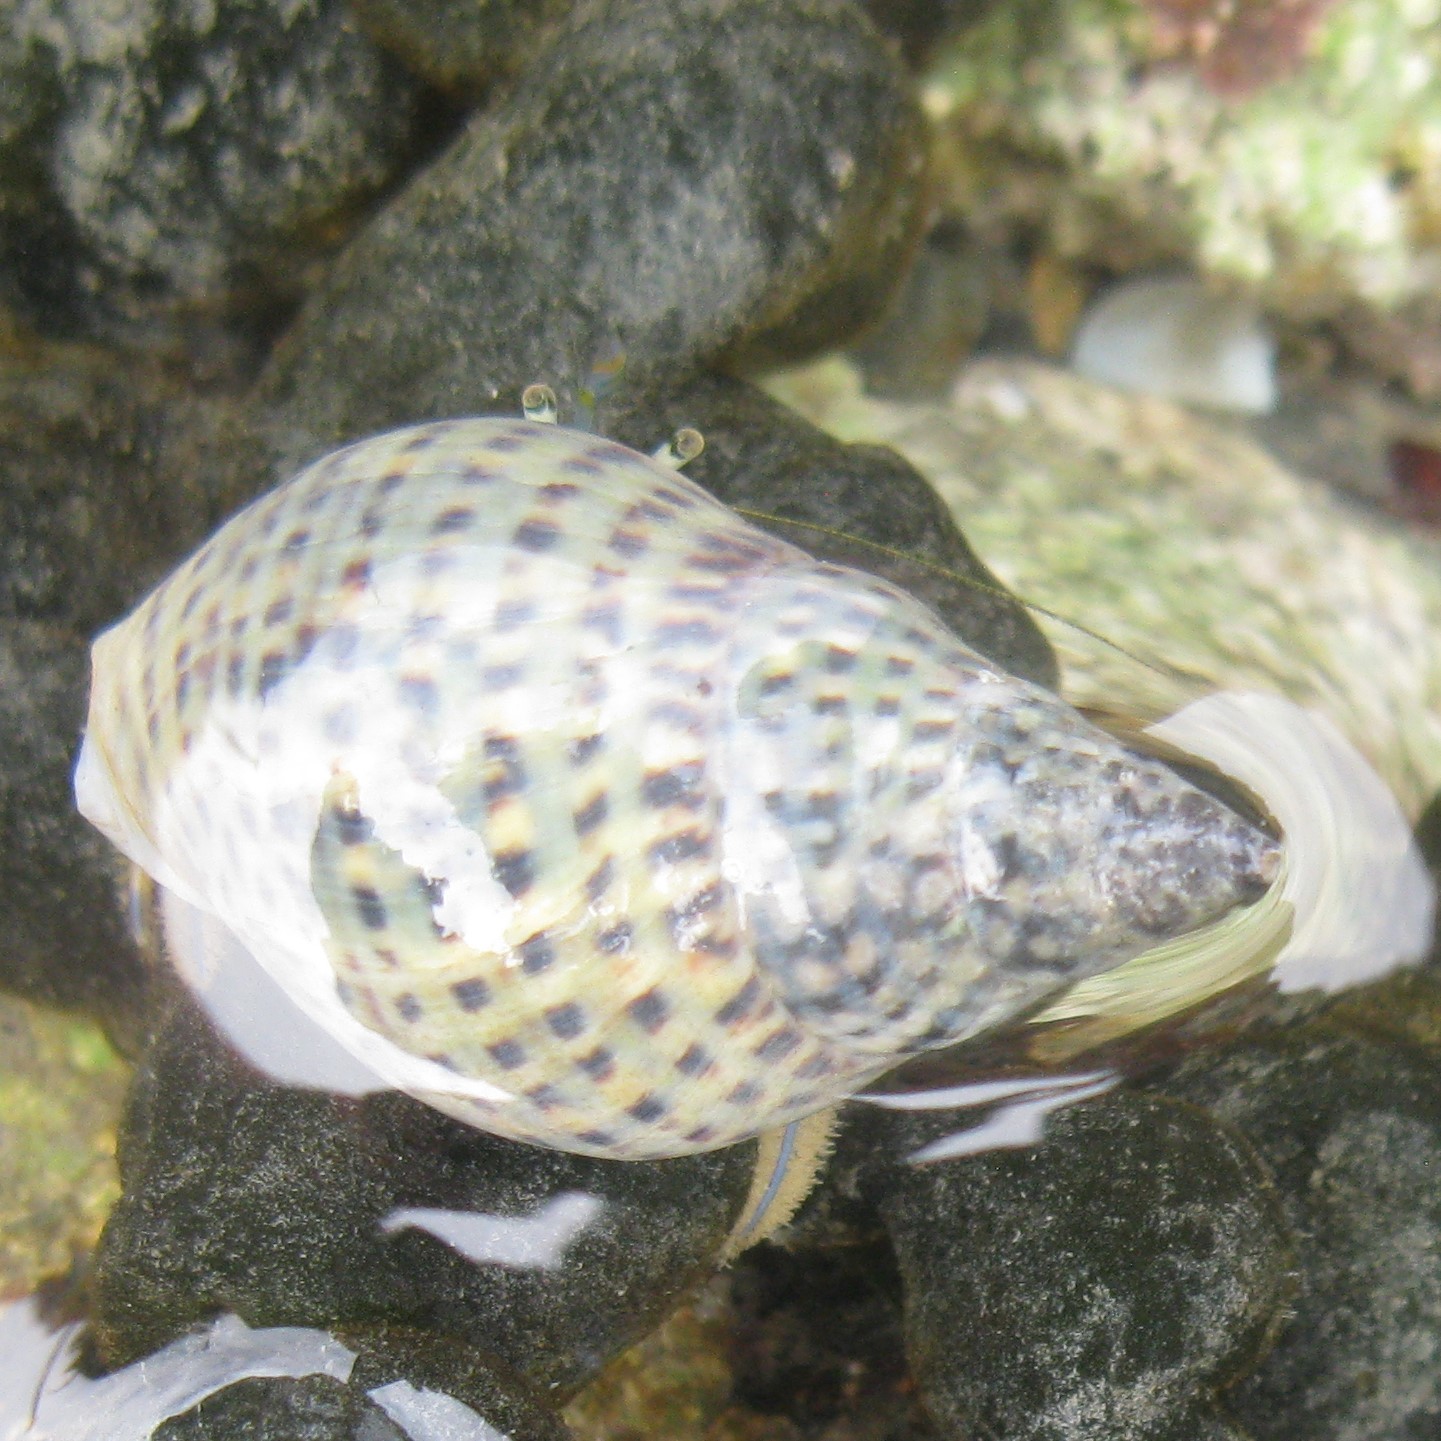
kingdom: Animalia
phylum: Arthropoda
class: Malacostraca
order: Decapoda
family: Paguridae
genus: Pagurus
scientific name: Pagurus novizealandiae
